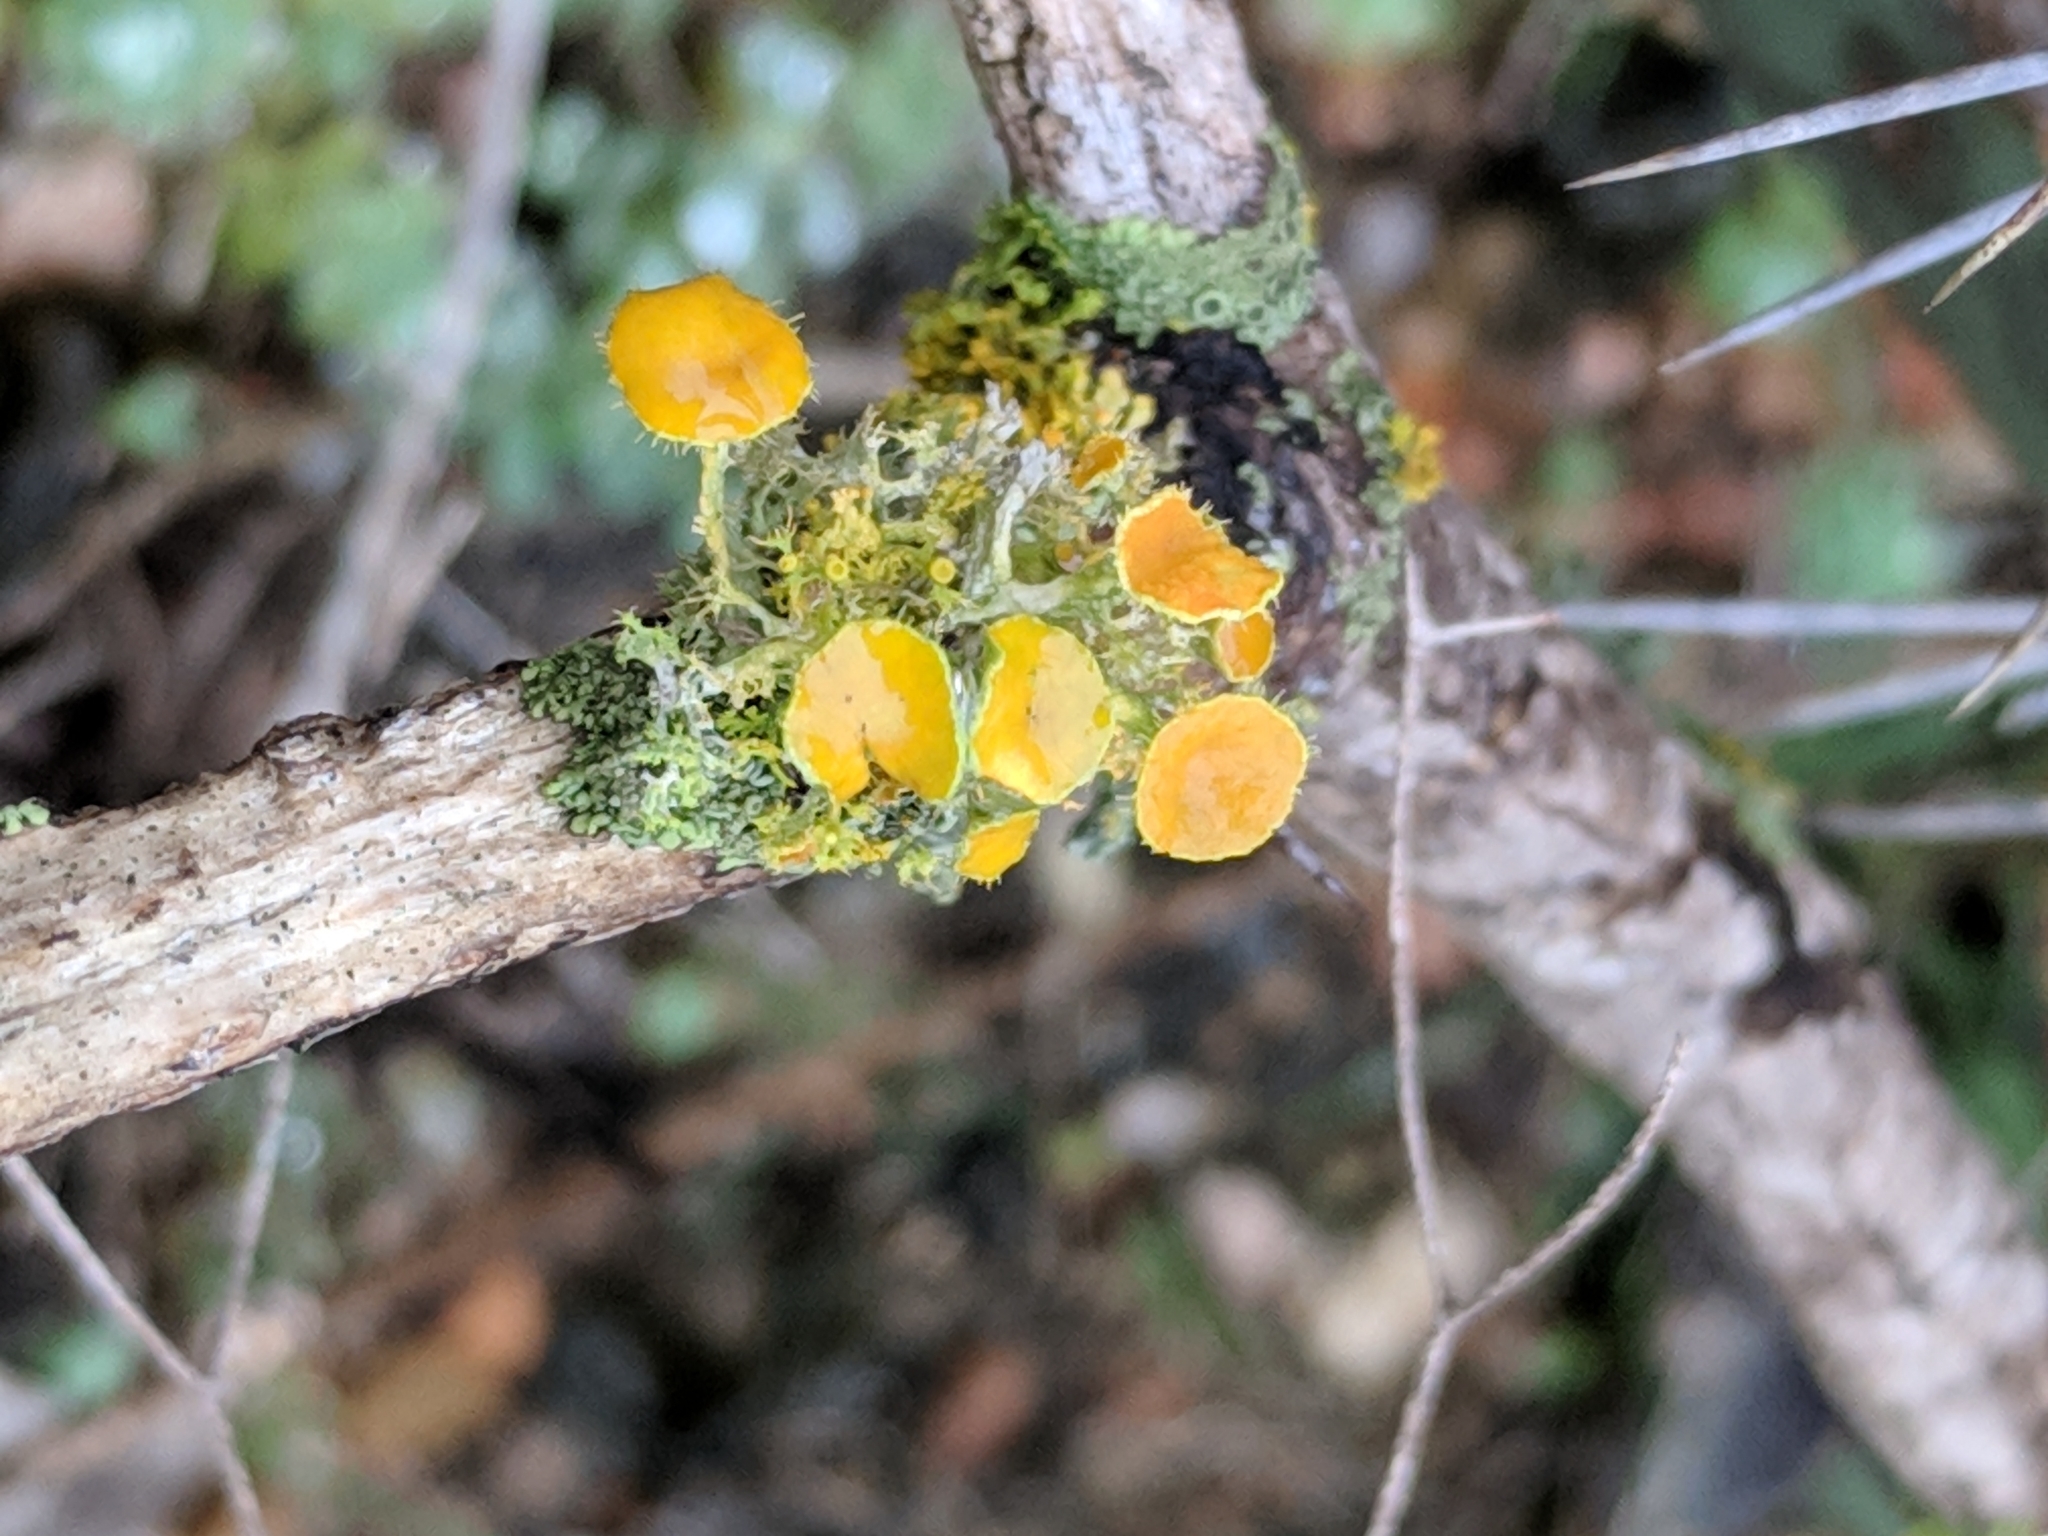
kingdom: Fungi
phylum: Ascomycota
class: Lecanoromycetes
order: Teloschistales
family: Teloschistaceae
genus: Niorma
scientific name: Niorma chrysophthalma
